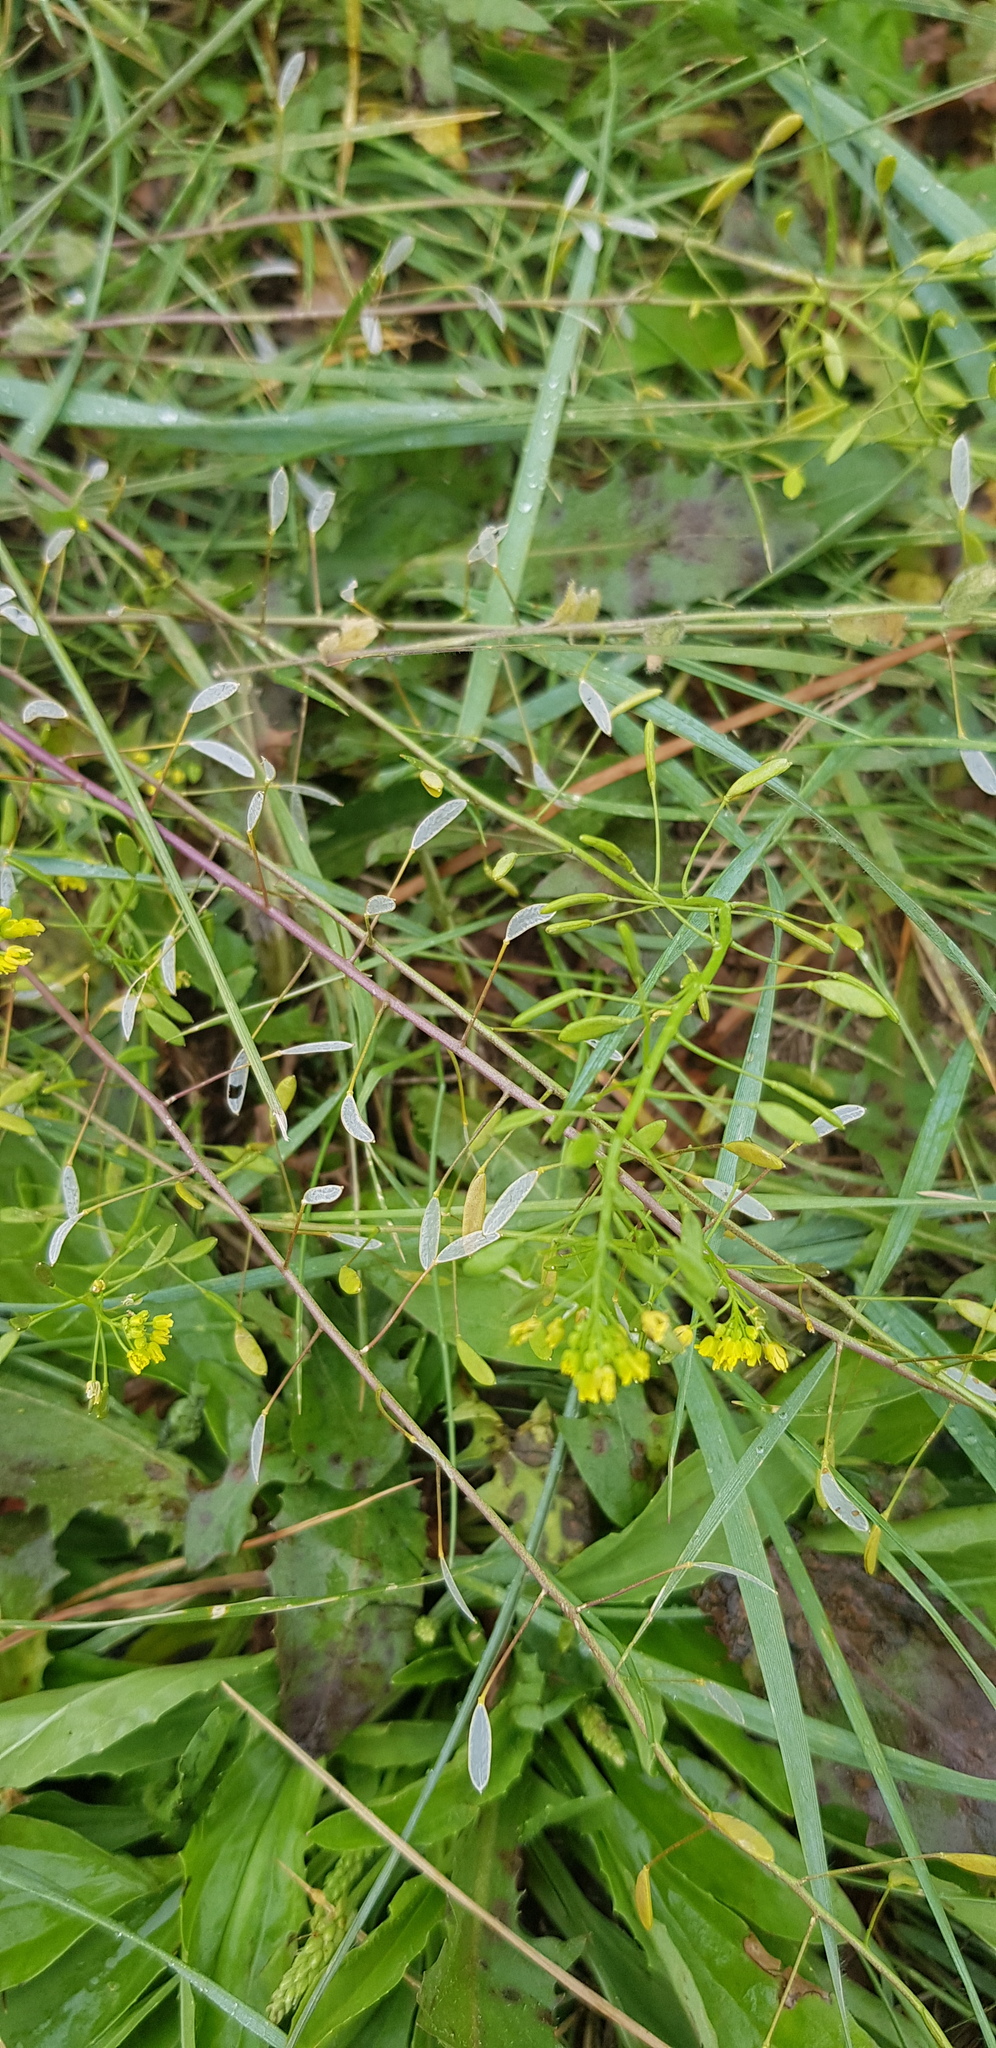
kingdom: Plantae
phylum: Tracheophyta
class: Magnoliopsida
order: Brassicales
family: Brassicaceae
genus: Draba
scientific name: Draba nemorosa
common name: Wood whitlow-grass
